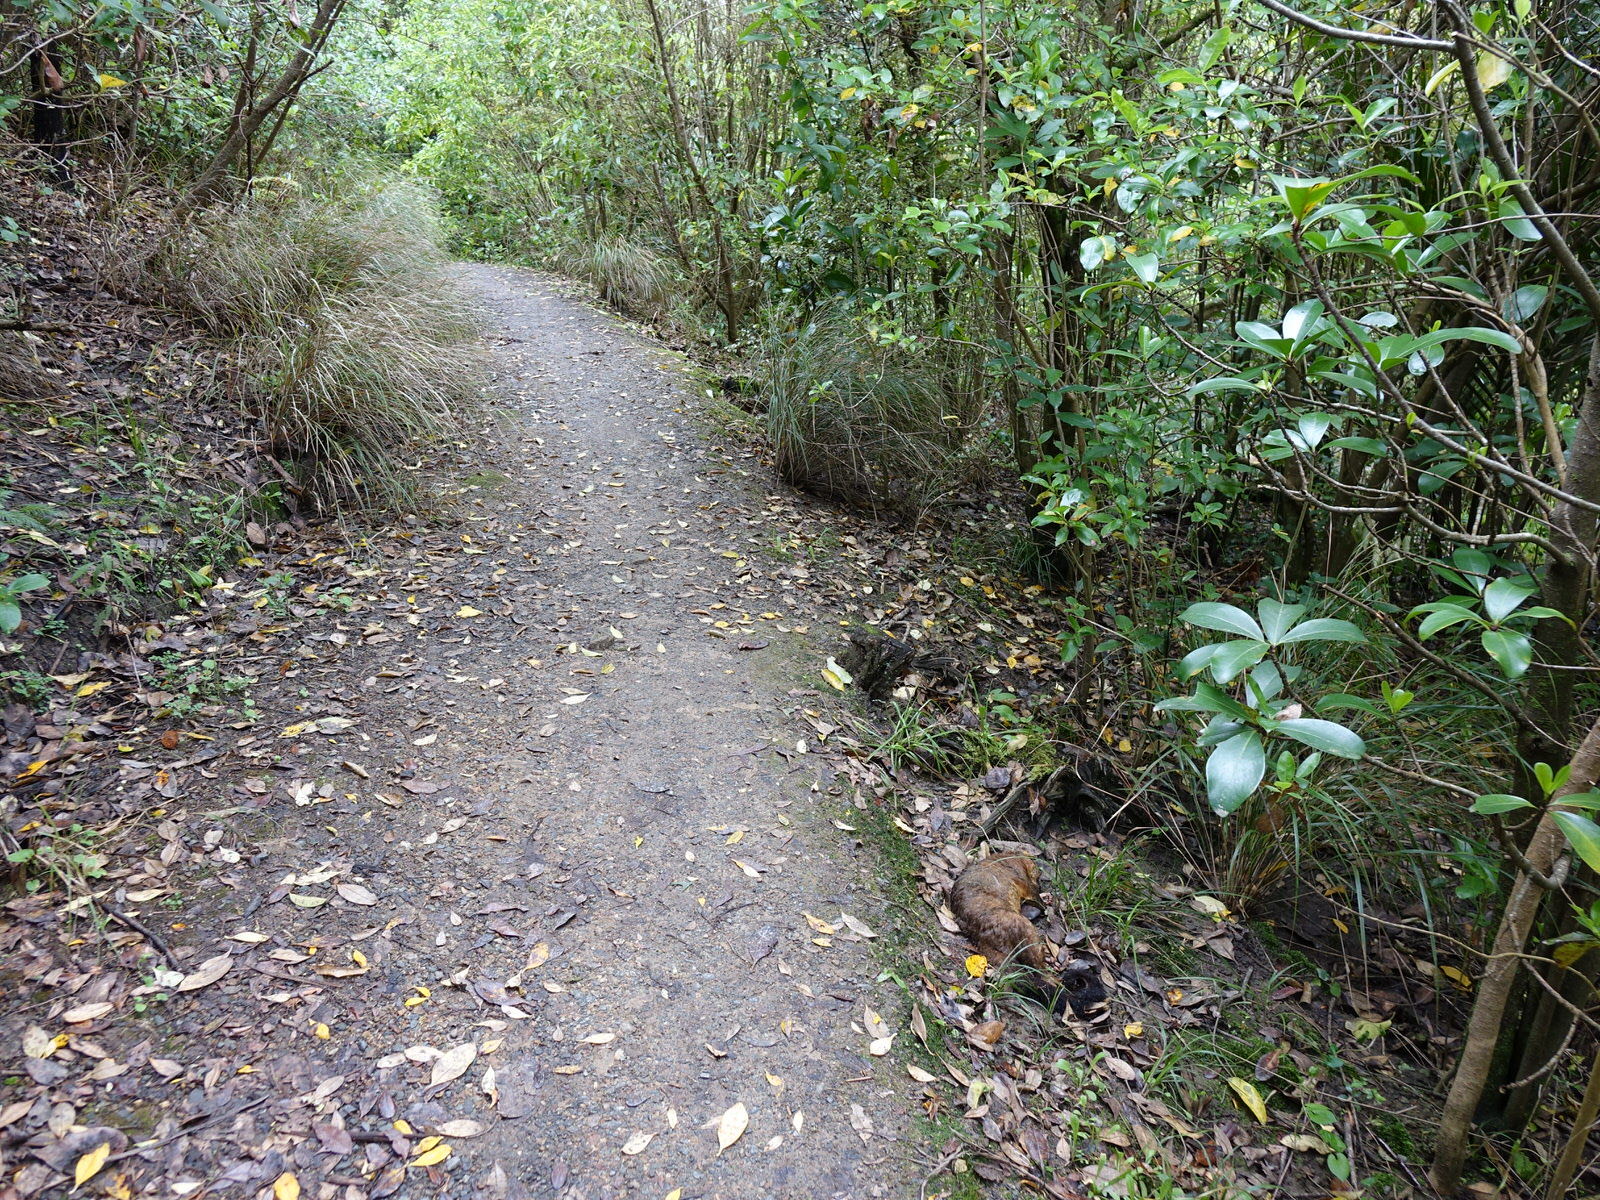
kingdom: Animalia
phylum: Chordata
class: Mammalia
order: Diprotodontia
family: Phalangeridae
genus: Trichosurus
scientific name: Trichosurus vulpecula
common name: Common brushtail
